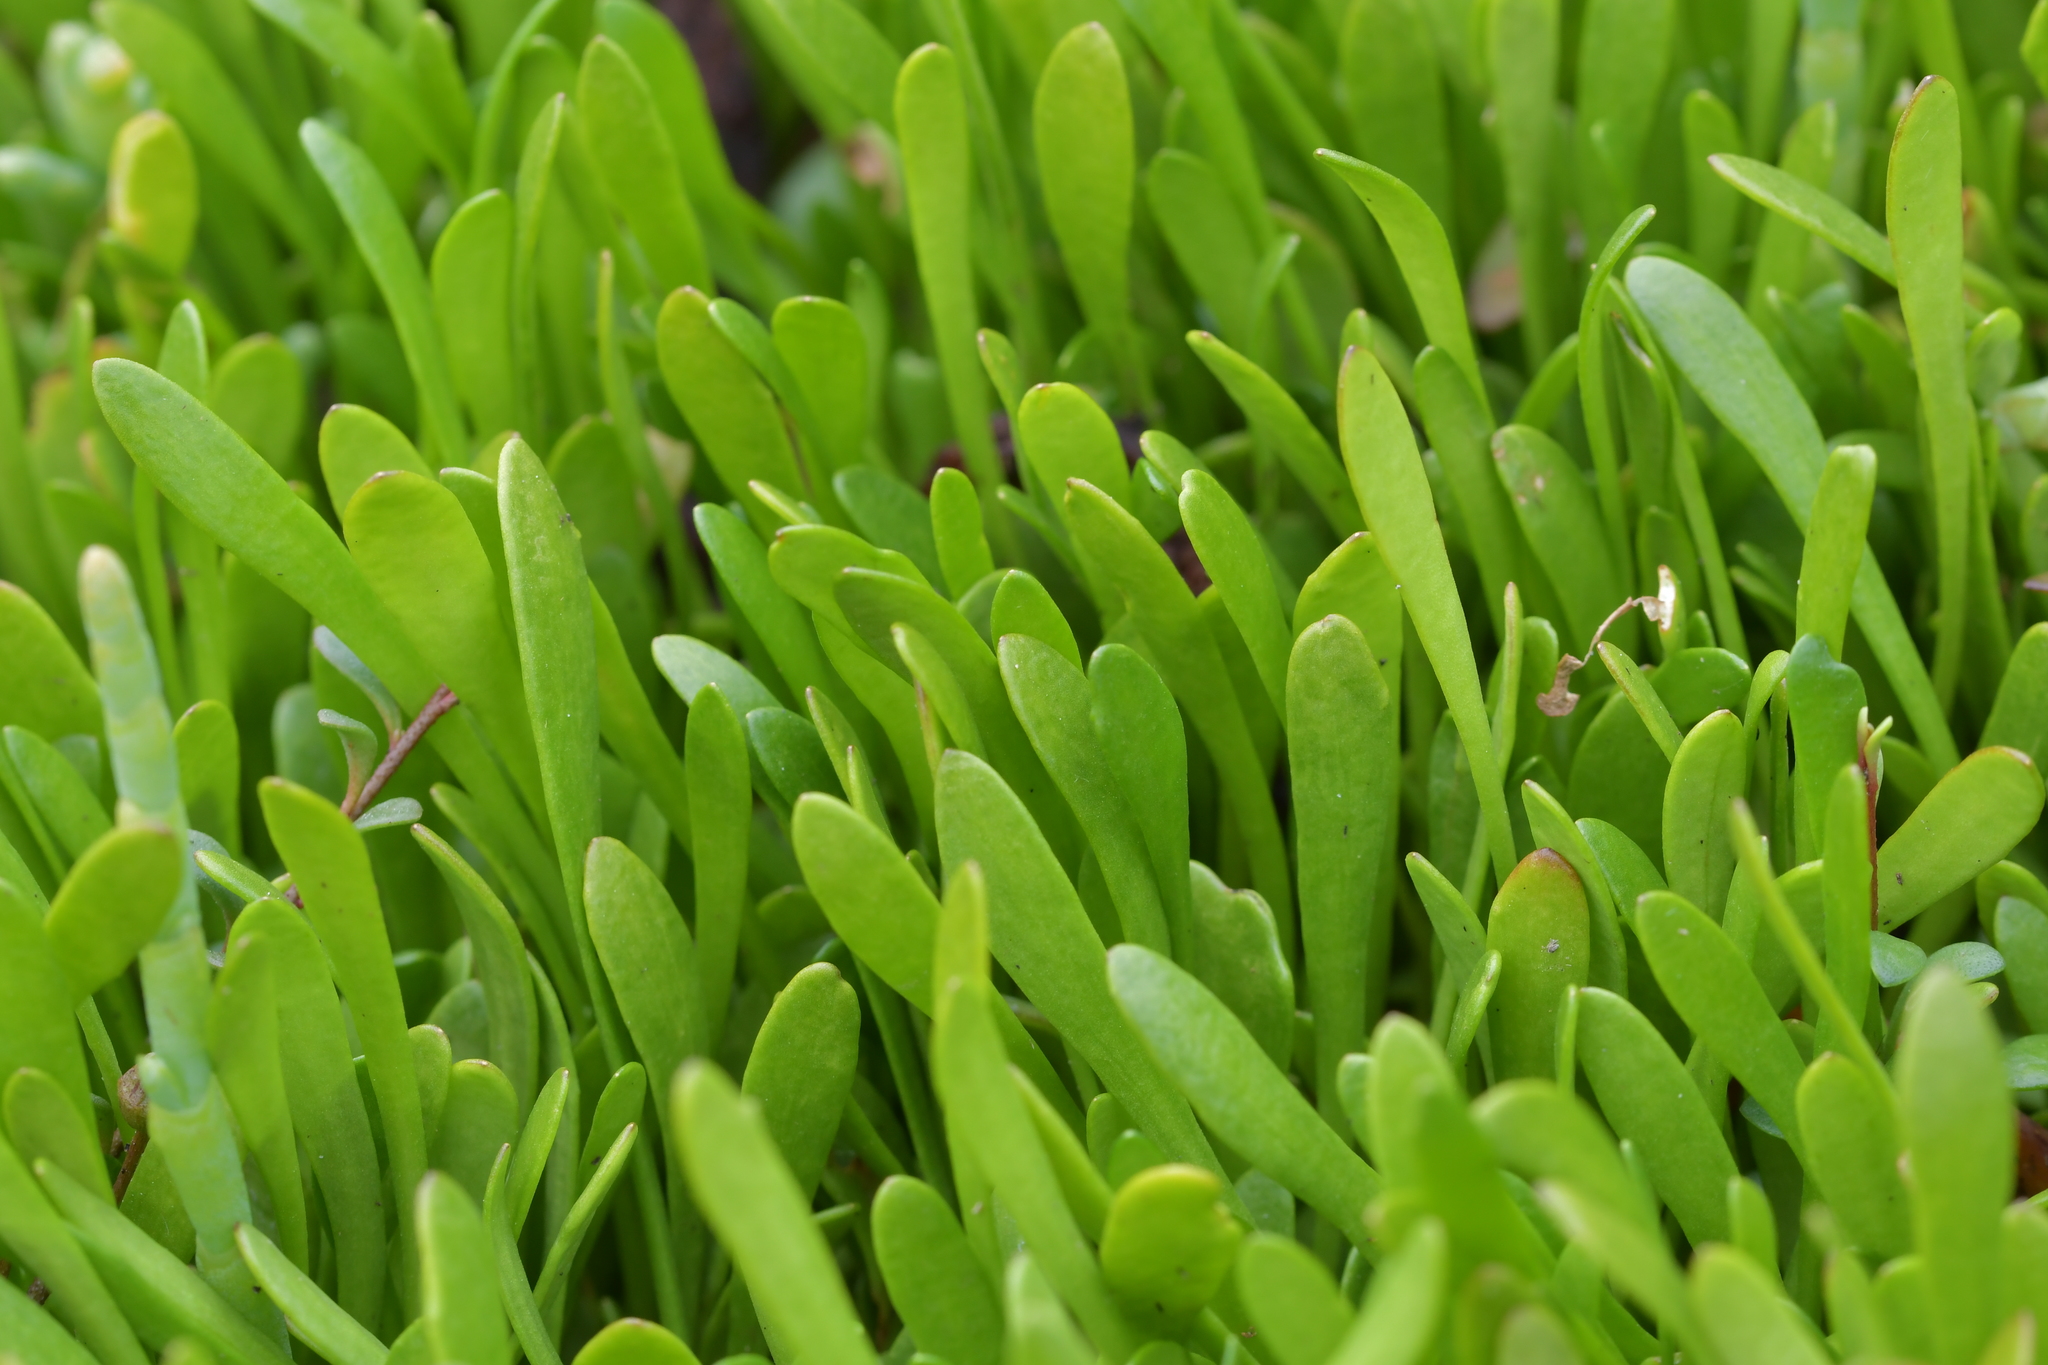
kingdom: Plantae
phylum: Tracheophyta
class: Magnoliopsida
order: Asterales
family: Goodeniaceae
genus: Goodenia
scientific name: Goodenia radicans
